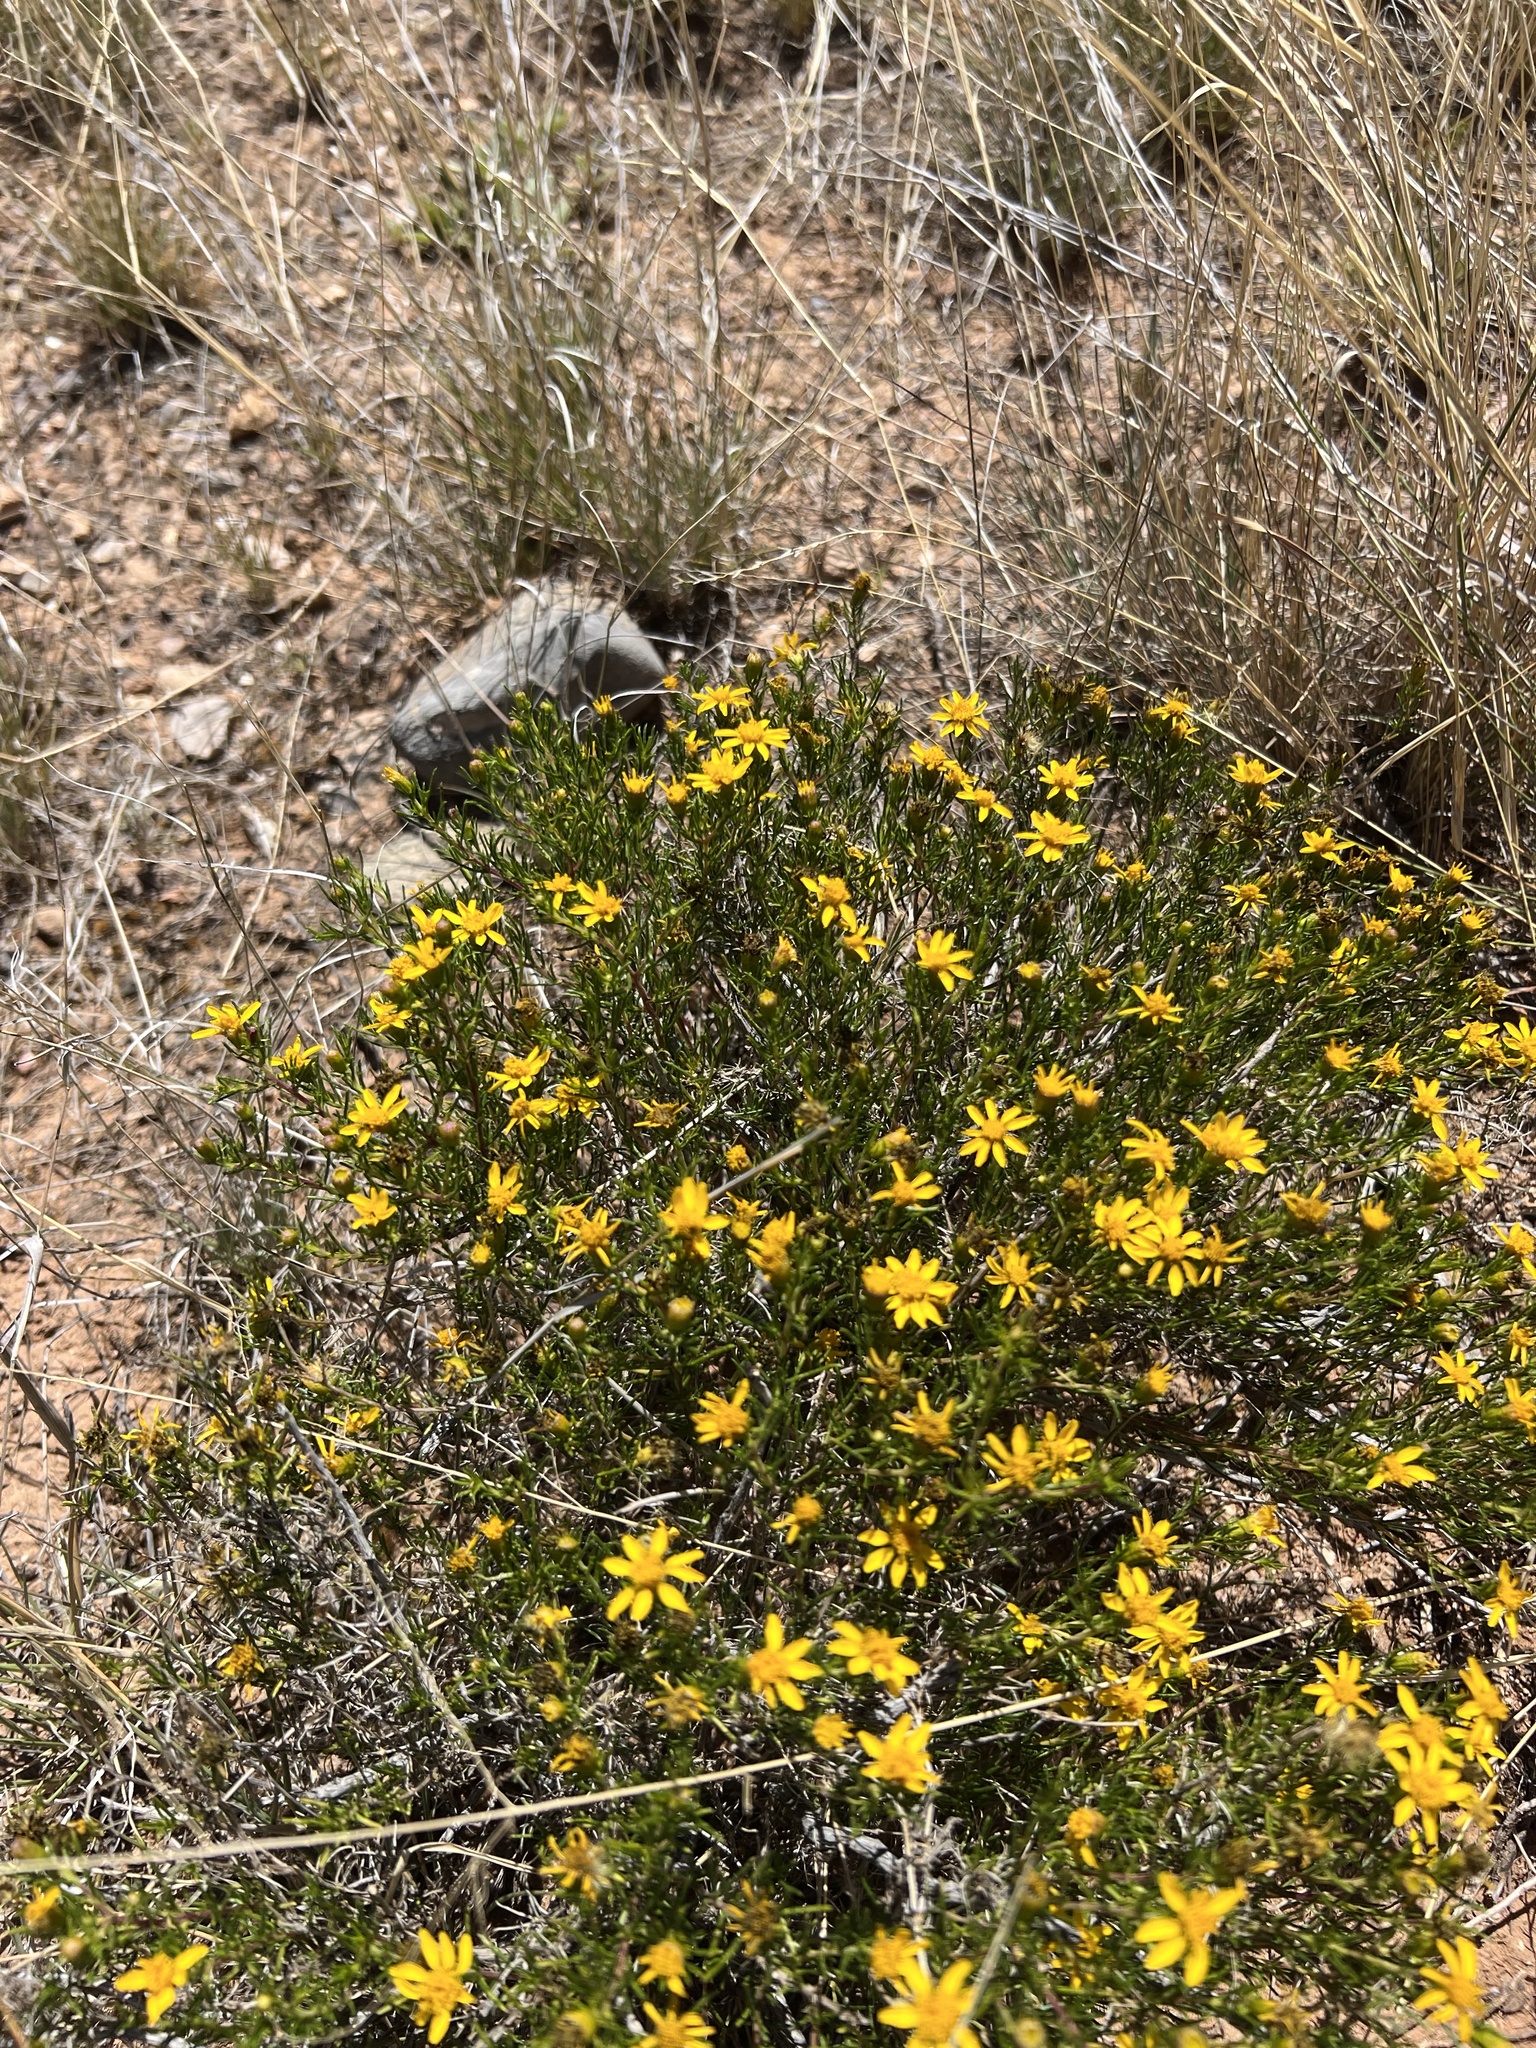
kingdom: Plantae
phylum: Tracheophyta
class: Magnoliopsida
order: Asterales
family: Asteraceae
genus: Thymophylla
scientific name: Thymophylla acerosa
